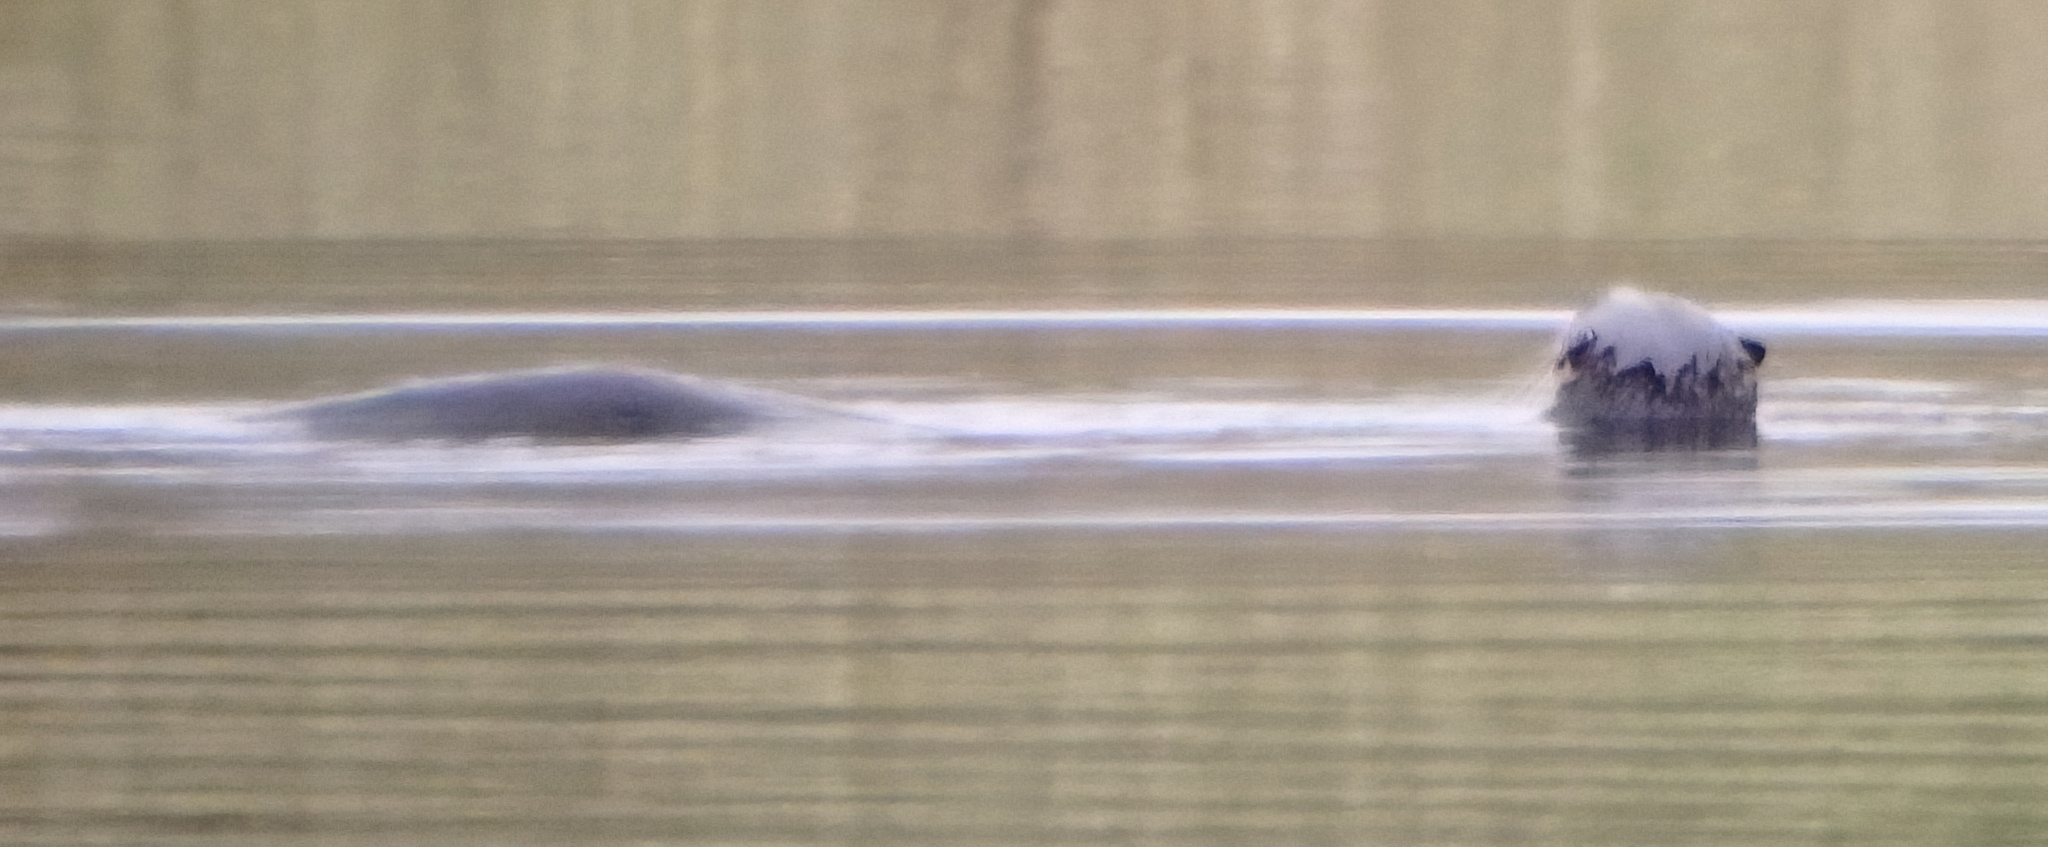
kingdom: Animalia
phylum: Chordata
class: Mammalia
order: Carnivora
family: Mustelidae
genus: Lontra
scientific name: Lontra canadensis
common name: North american river otter
